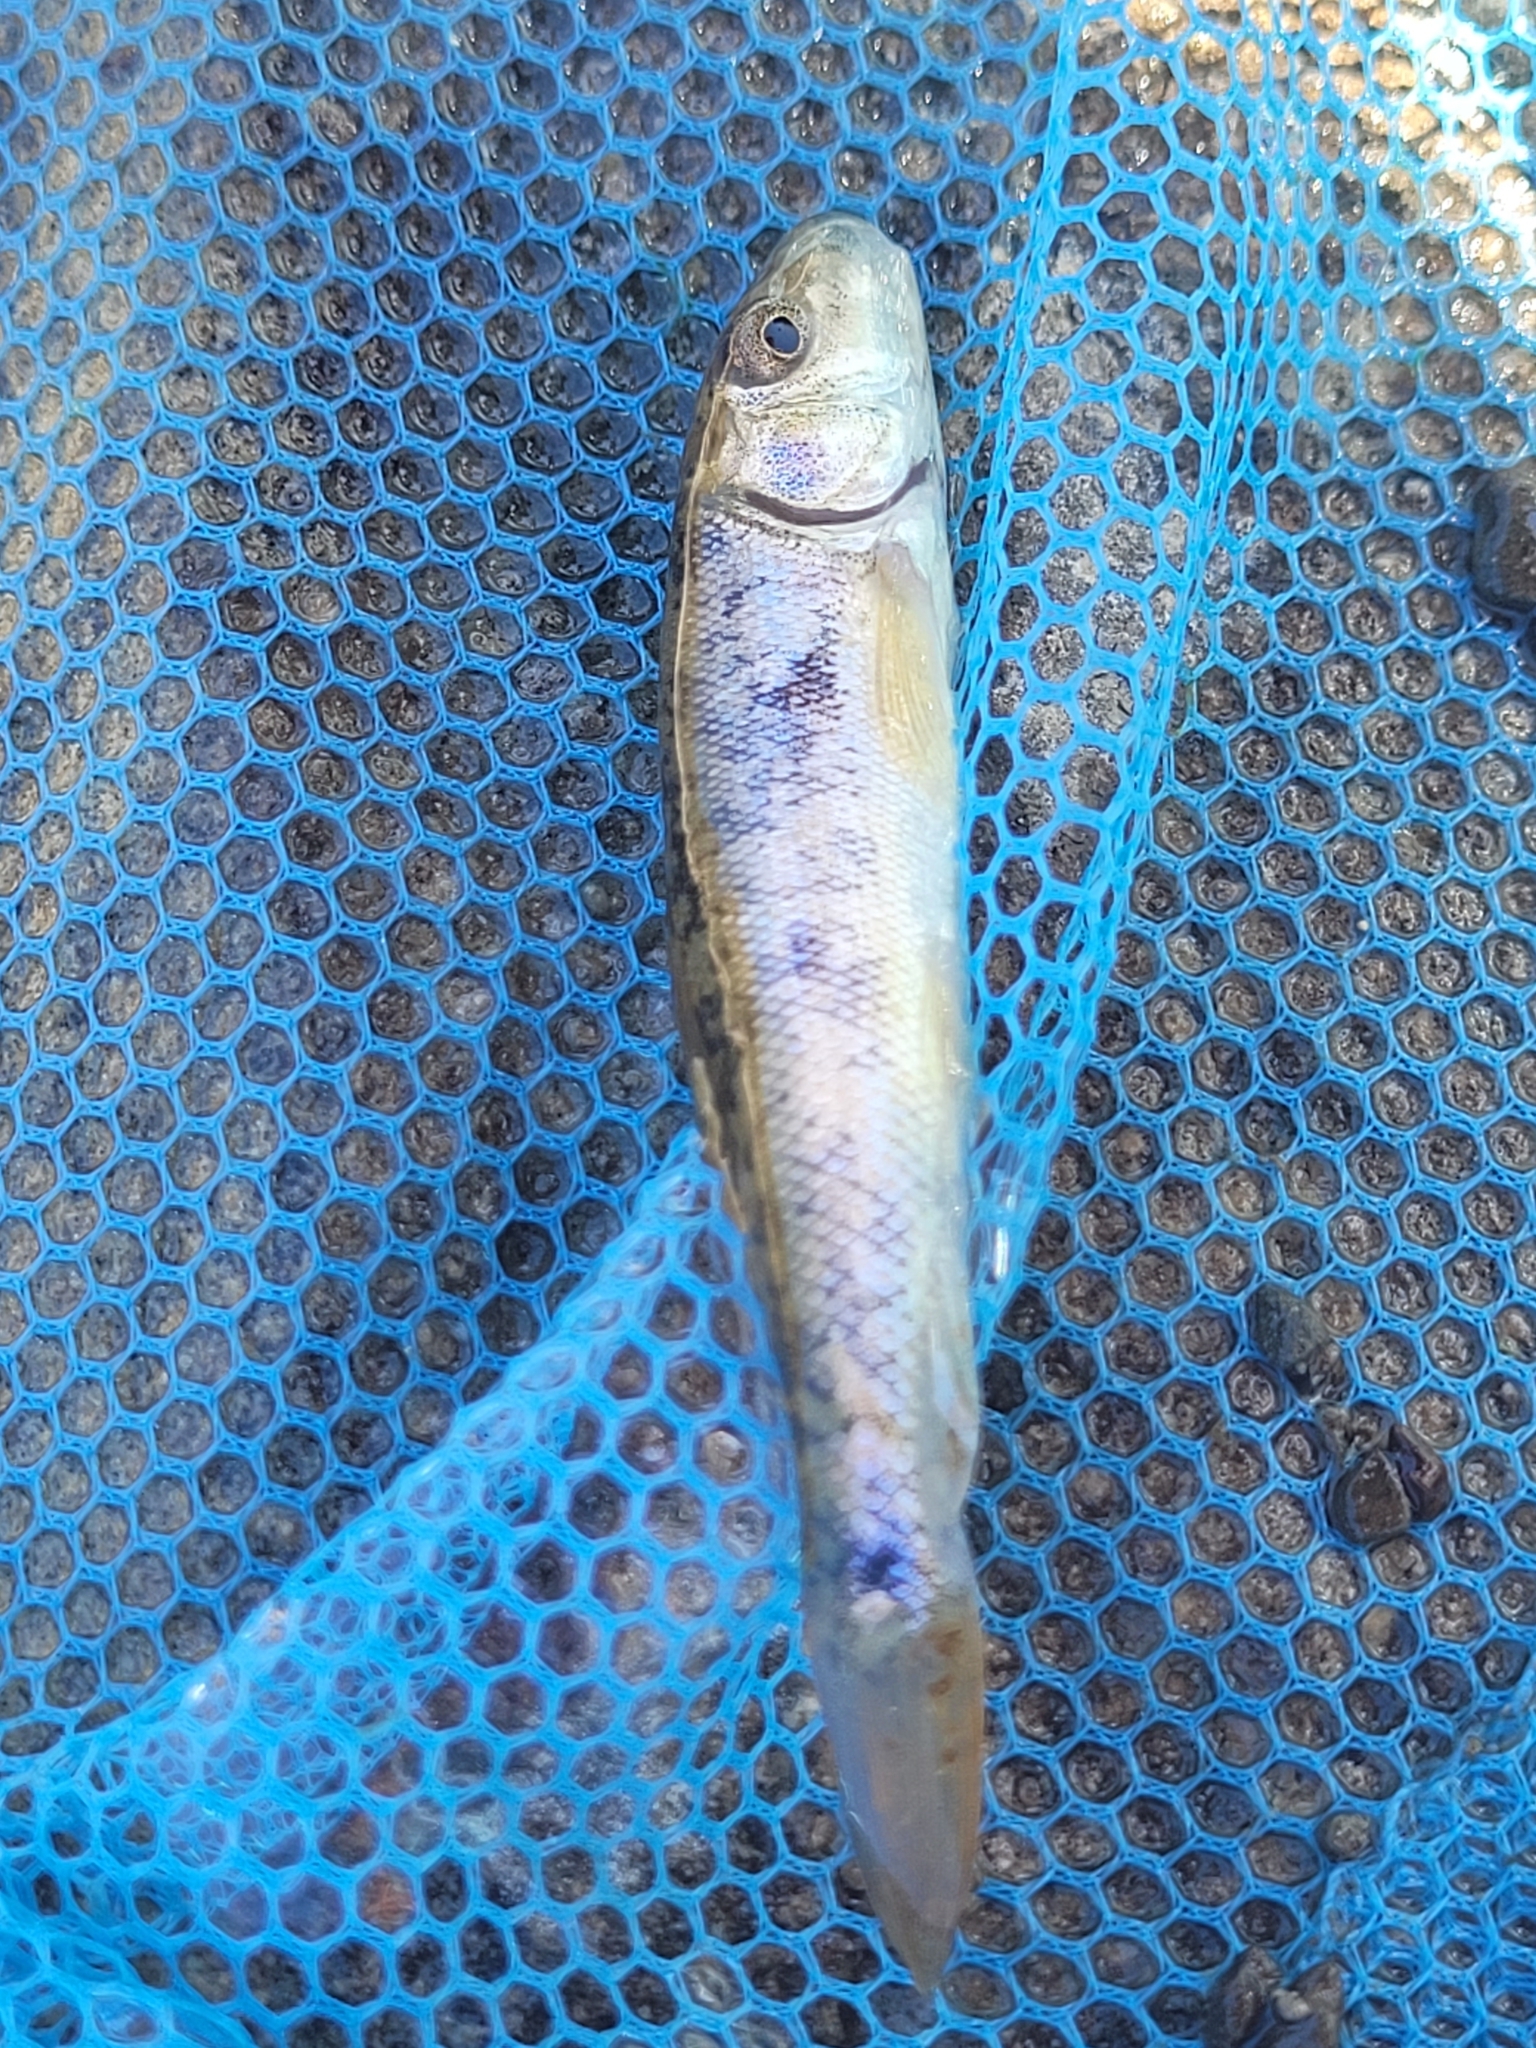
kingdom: Animalia
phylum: Chordata
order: Cypriniformes
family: Catostomidae
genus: Catostomus
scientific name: Catostomus commersonii
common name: White sucker
